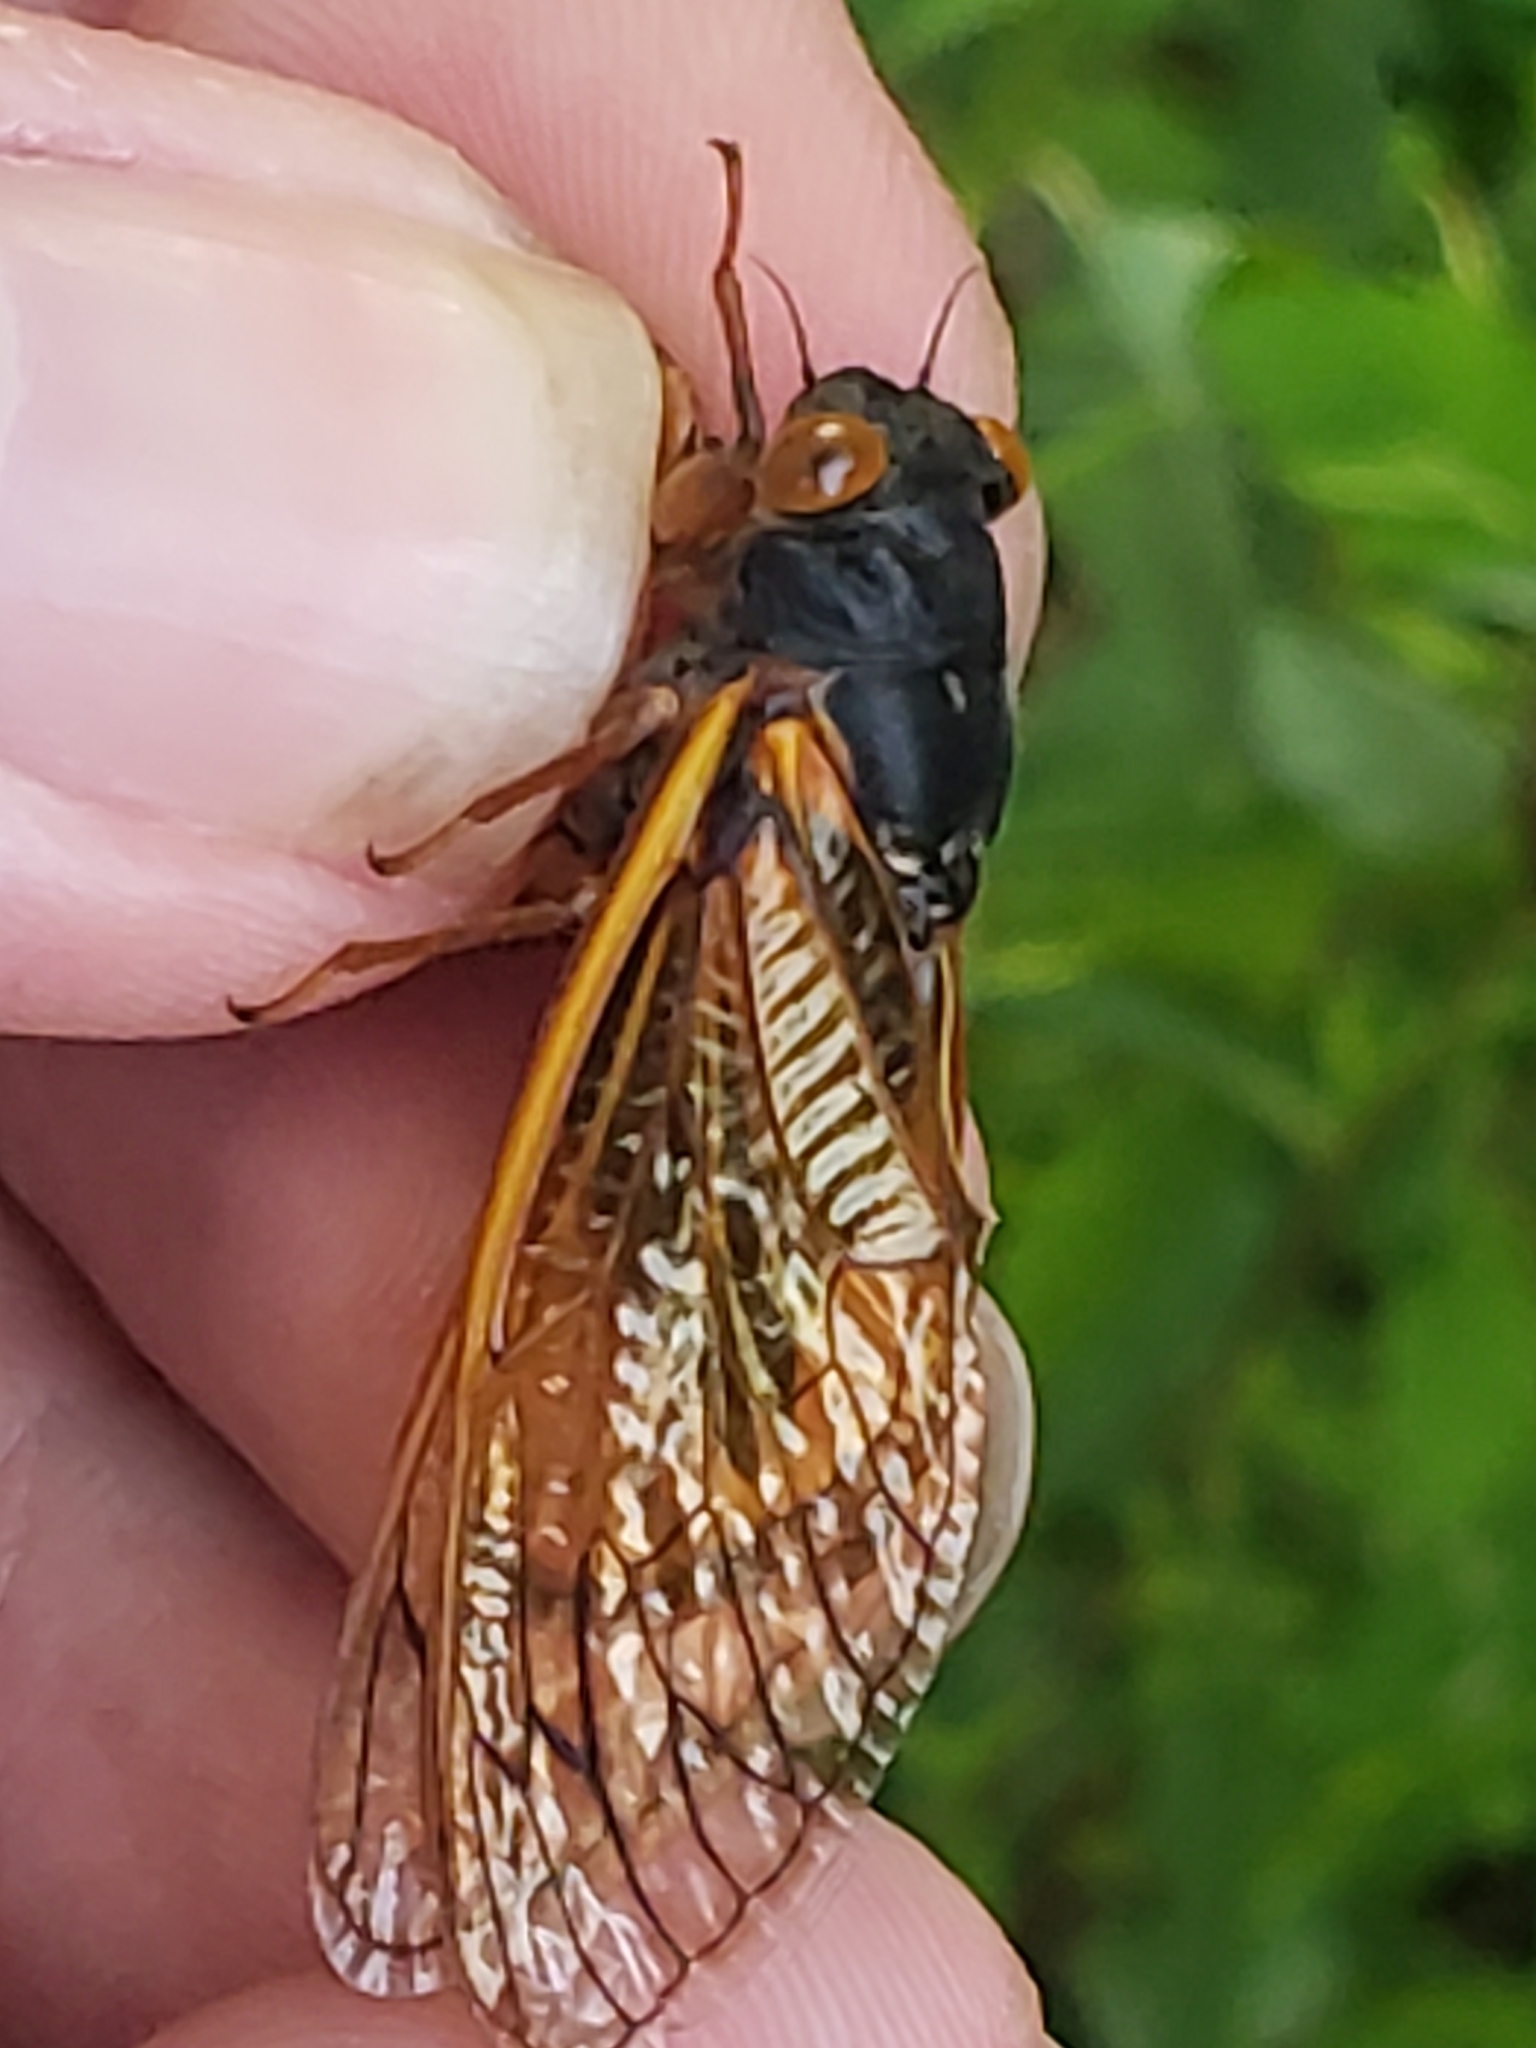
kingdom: Animalia
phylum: Arthropoda
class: Insecta
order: Hemiptera
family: Cicadidae
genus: Magicicada
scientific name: Magicicada septendecula
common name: Decula periodical cicada
